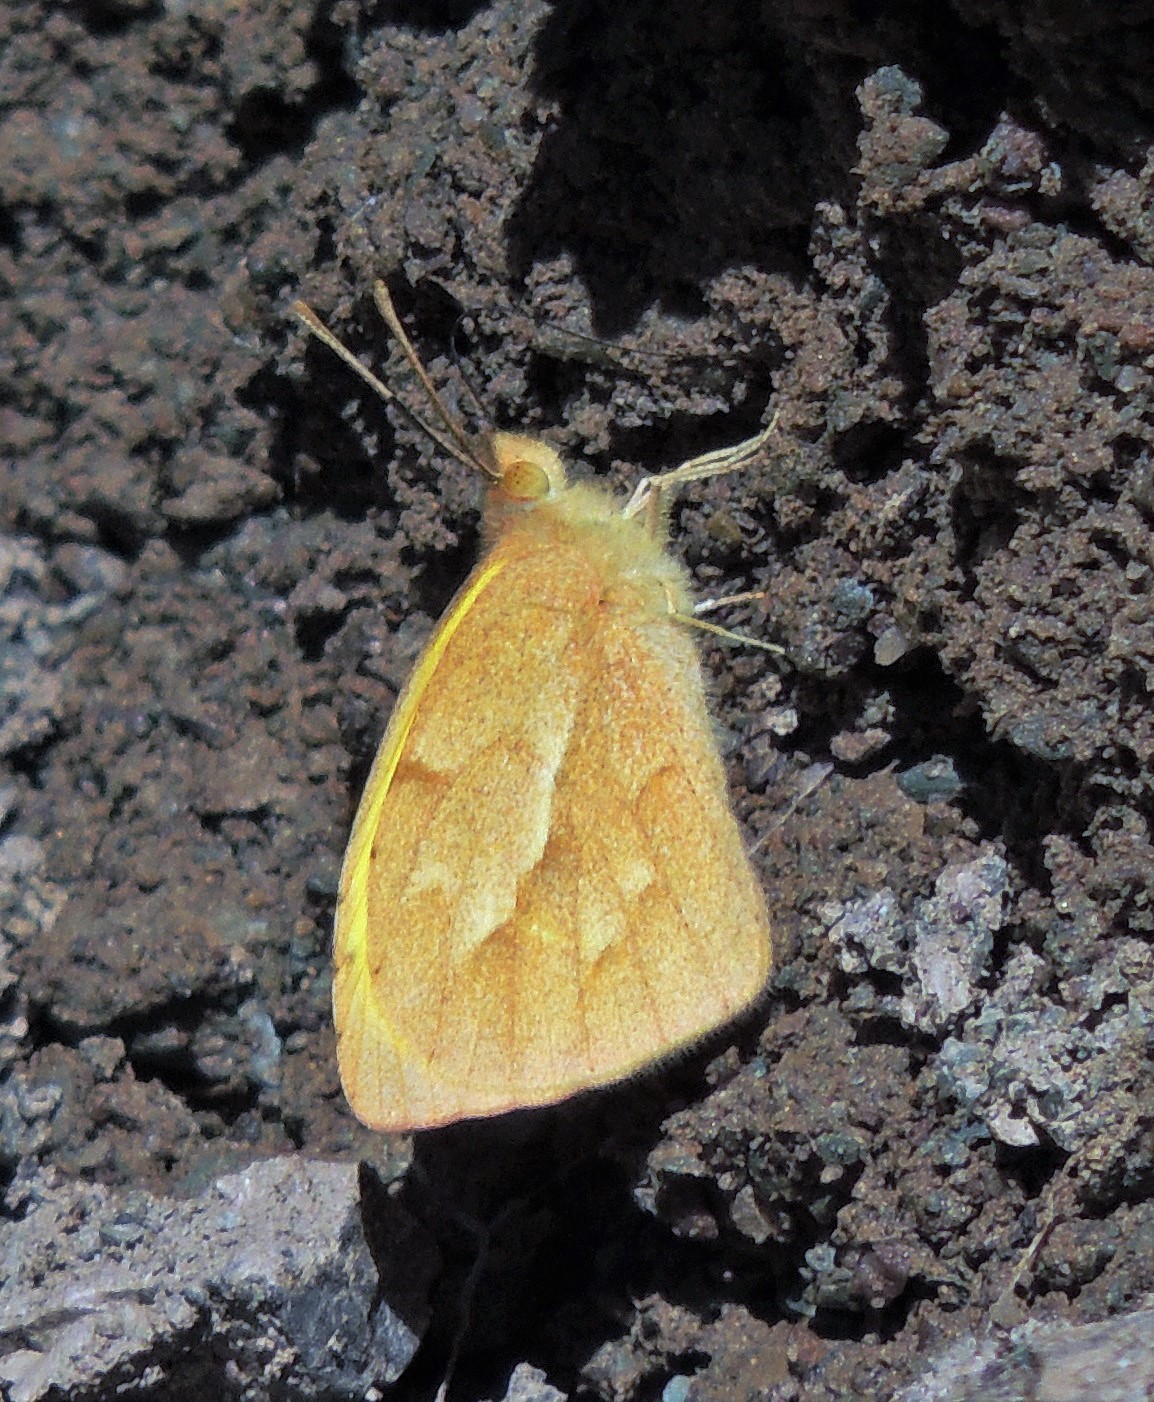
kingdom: Animalia
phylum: Arthropoda
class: Insecta
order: Lepidoptera
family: Pieridae
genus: Teriocolias
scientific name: Teriocolias zelia
